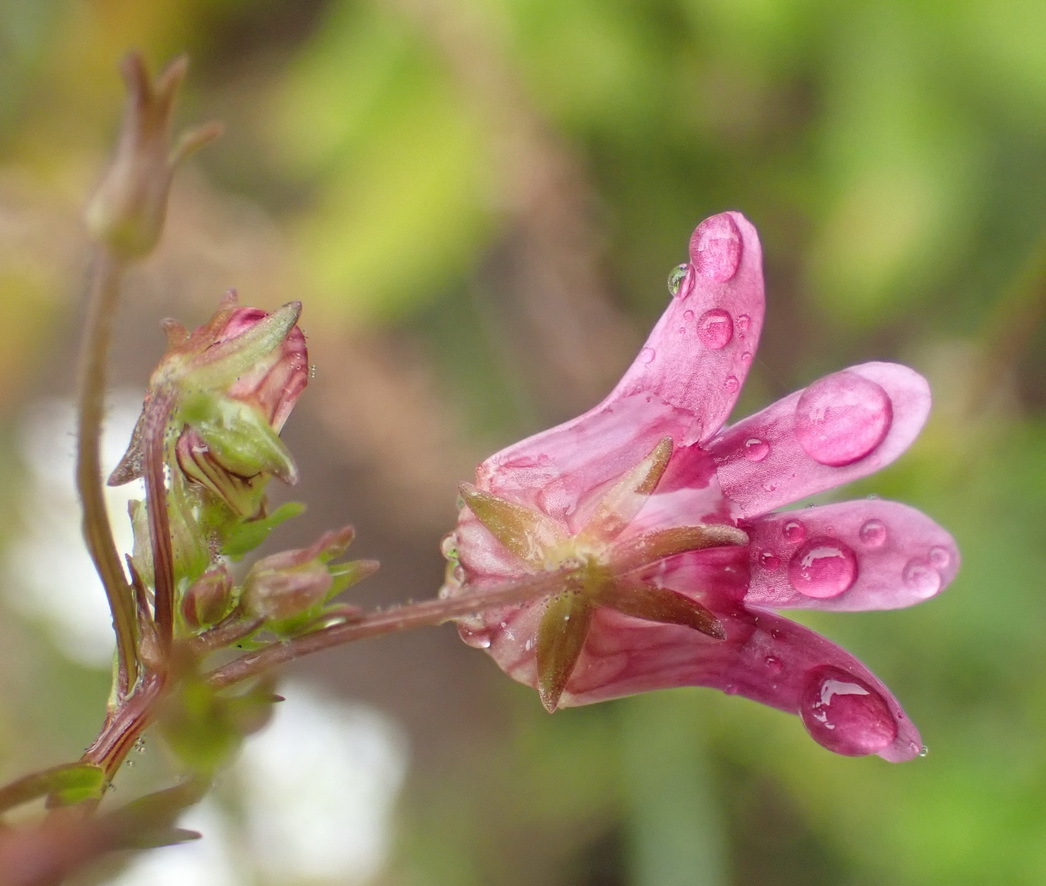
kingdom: Plantae
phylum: Tracheophyta
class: Magnoliopsida
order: Lamiales
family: Scrophulariaceae
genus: Nemesia
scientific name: Nemesia leipoldtii
